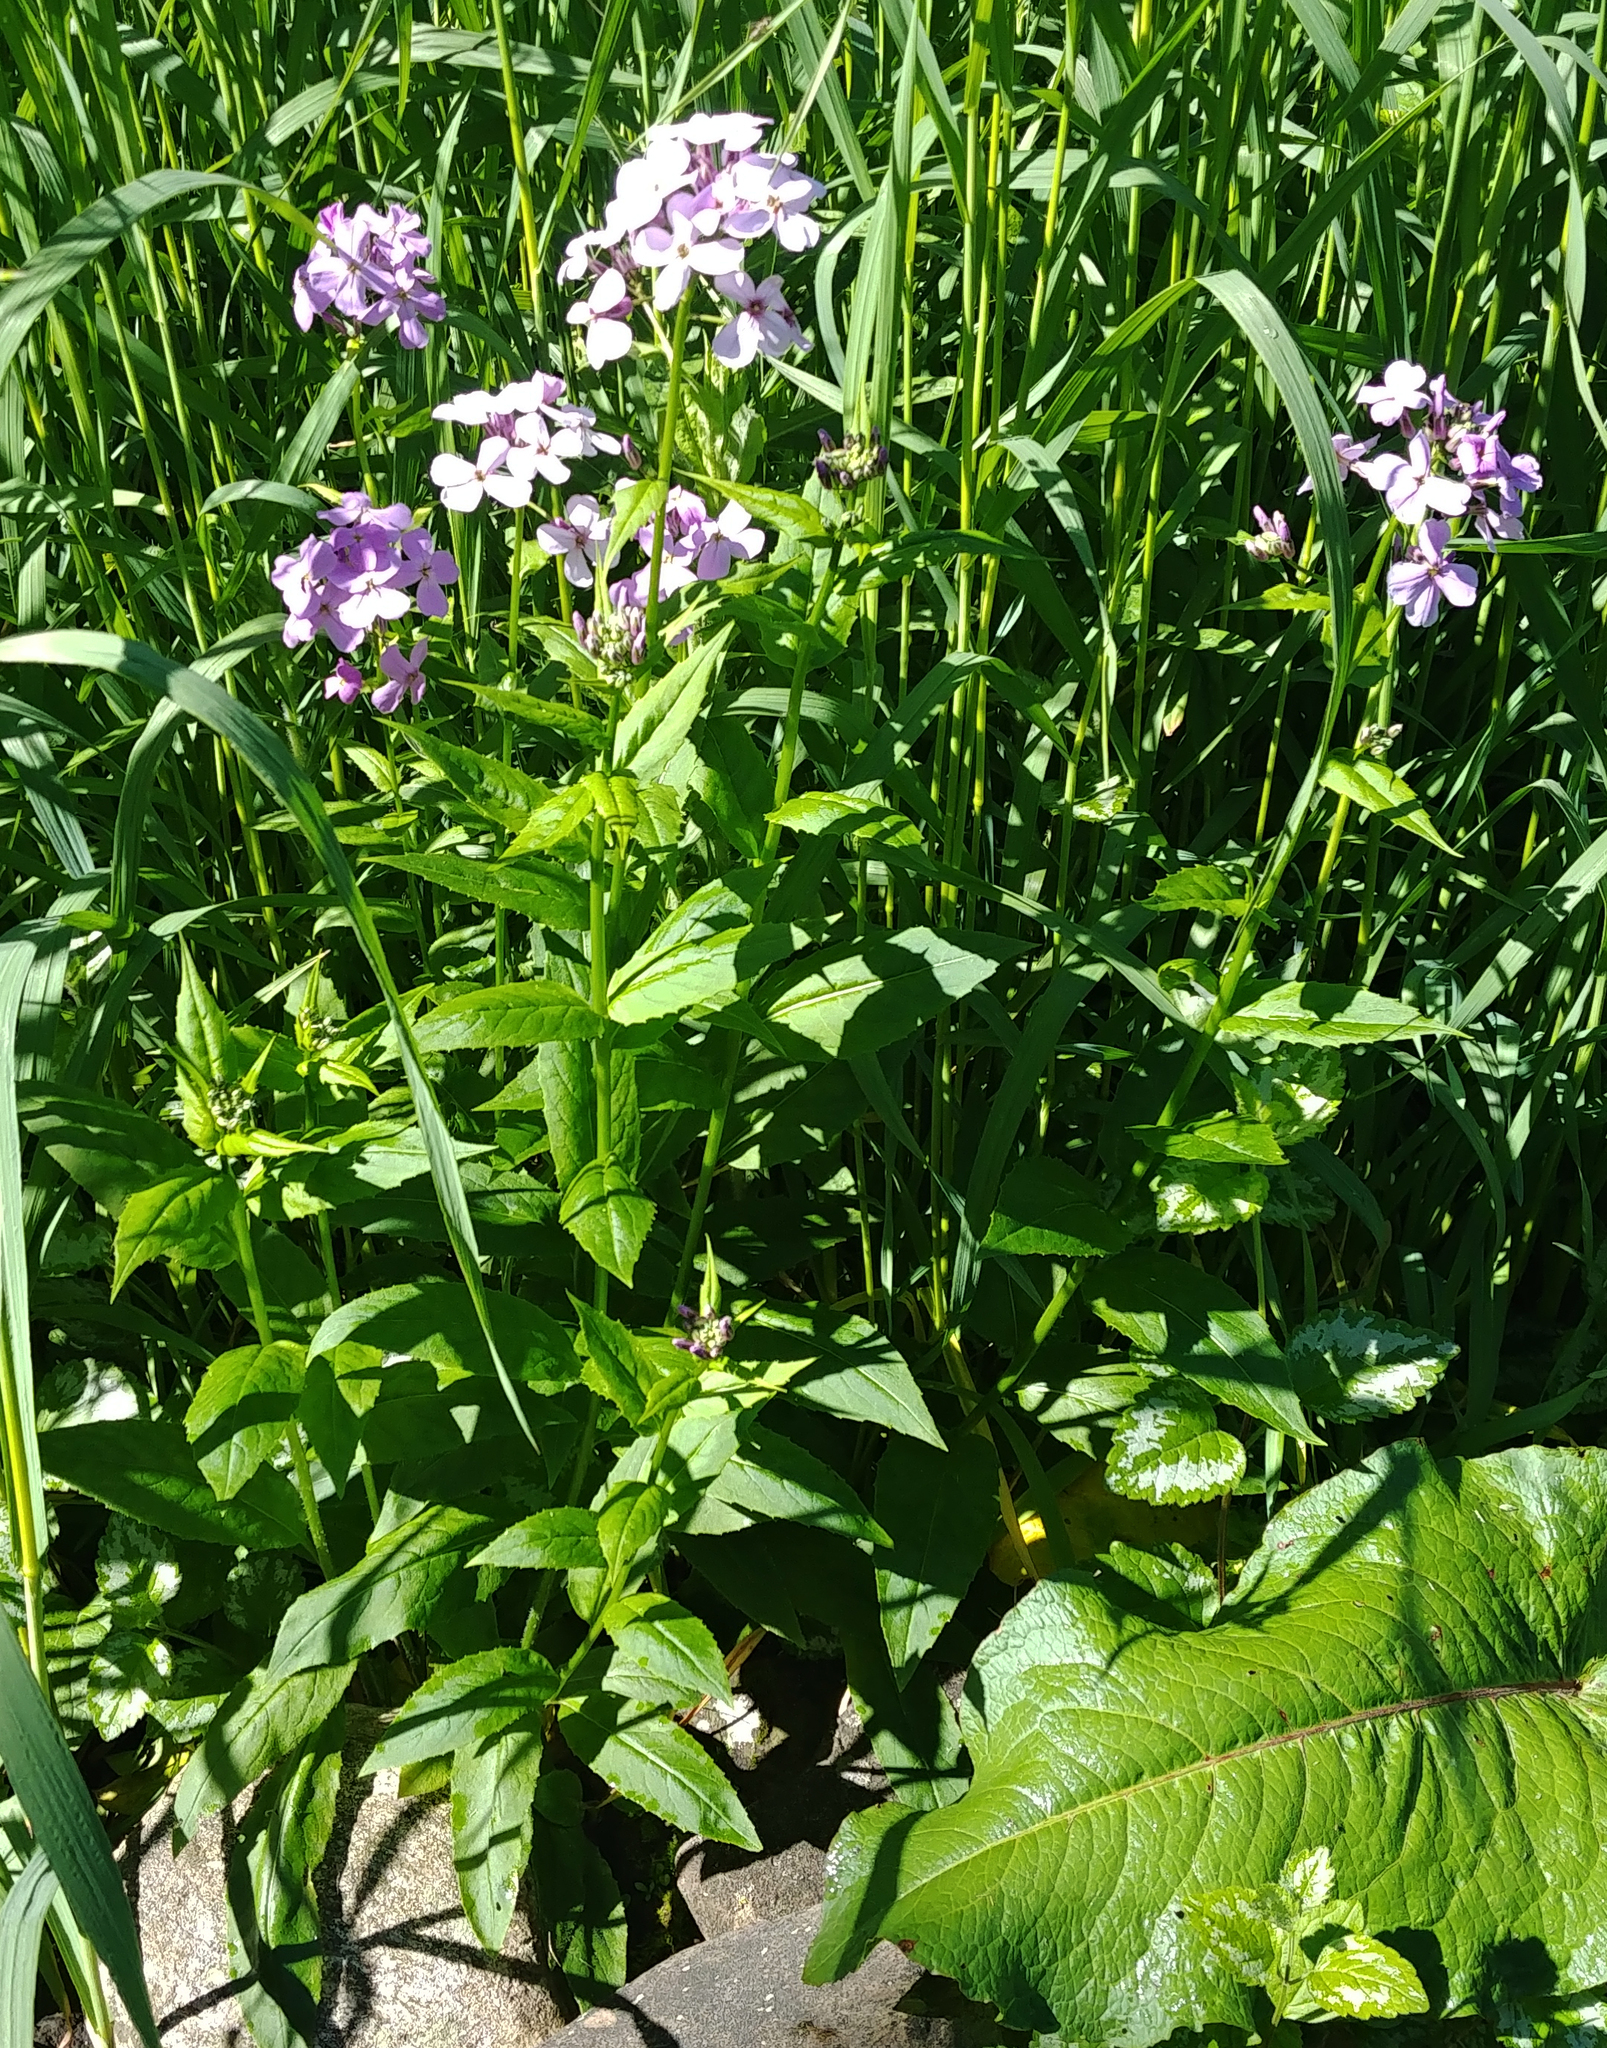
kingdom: Plantae
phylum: Tracheophyta
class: Magnoliopsida
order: Brassicales
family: Brassicaceae
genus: Hesperis
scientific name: Hesperis matronalis
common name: Dame's-violet
